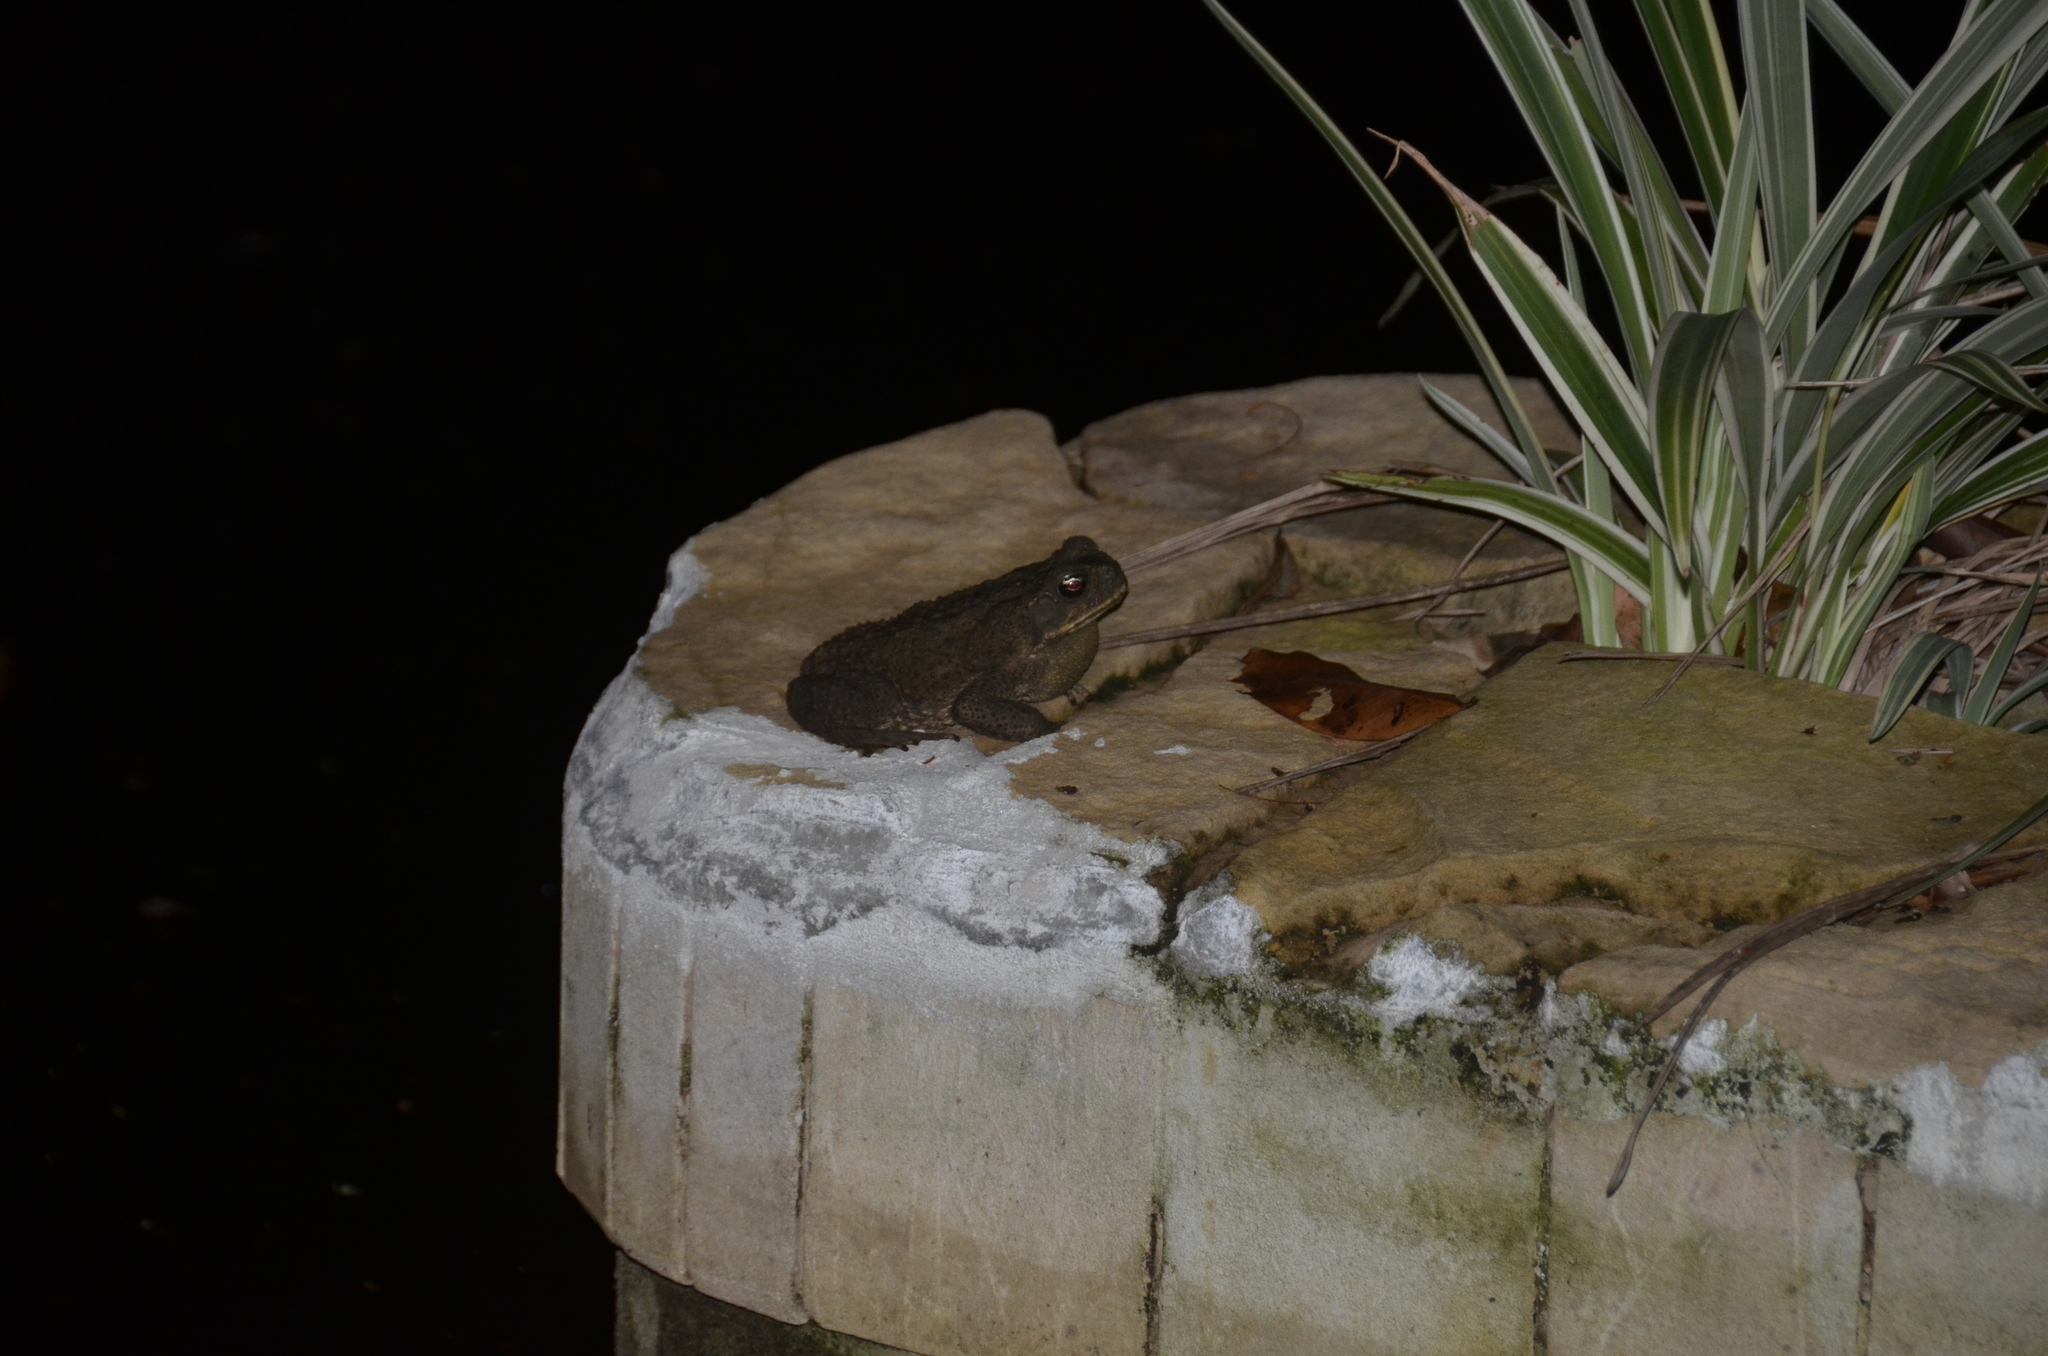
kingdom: Animalia
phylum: Chordata
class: Amphibia
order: Anura
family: Bufonidae
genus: Rhinella
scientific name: Rhinella horribilis
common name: Mesoamerican cane toad
